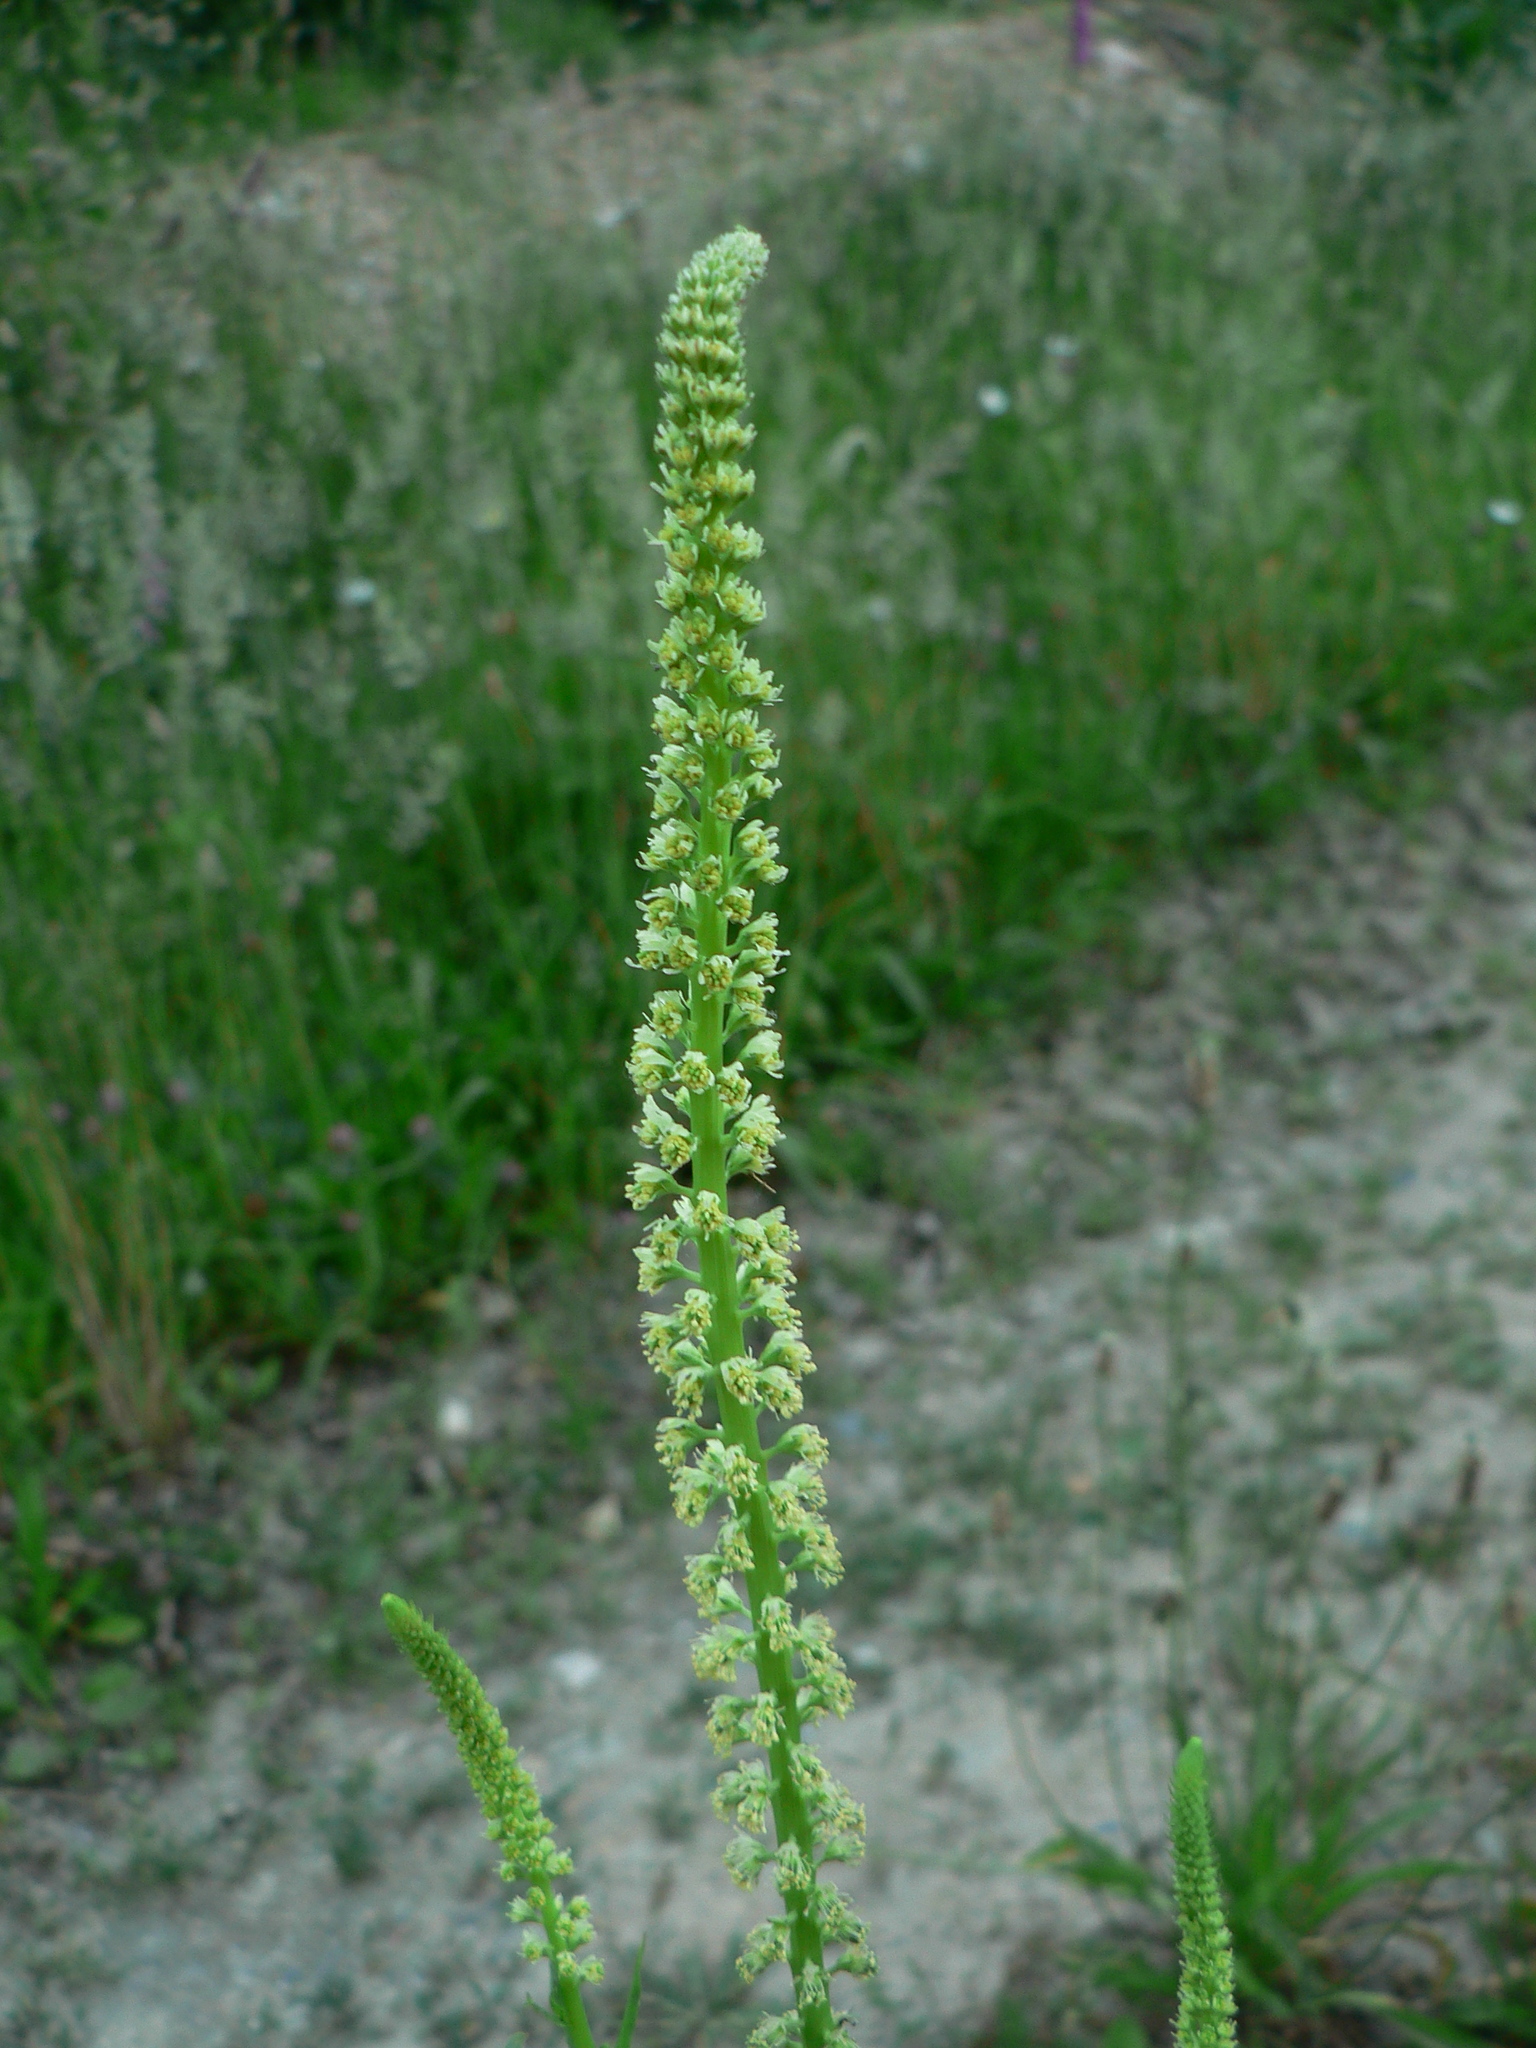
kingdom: Plantae
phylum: Tracheophyta
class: Magnoliopsida
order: Brassicales
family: Resedaceae
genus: Reseda
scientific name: Reseda luteola
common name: Weld
